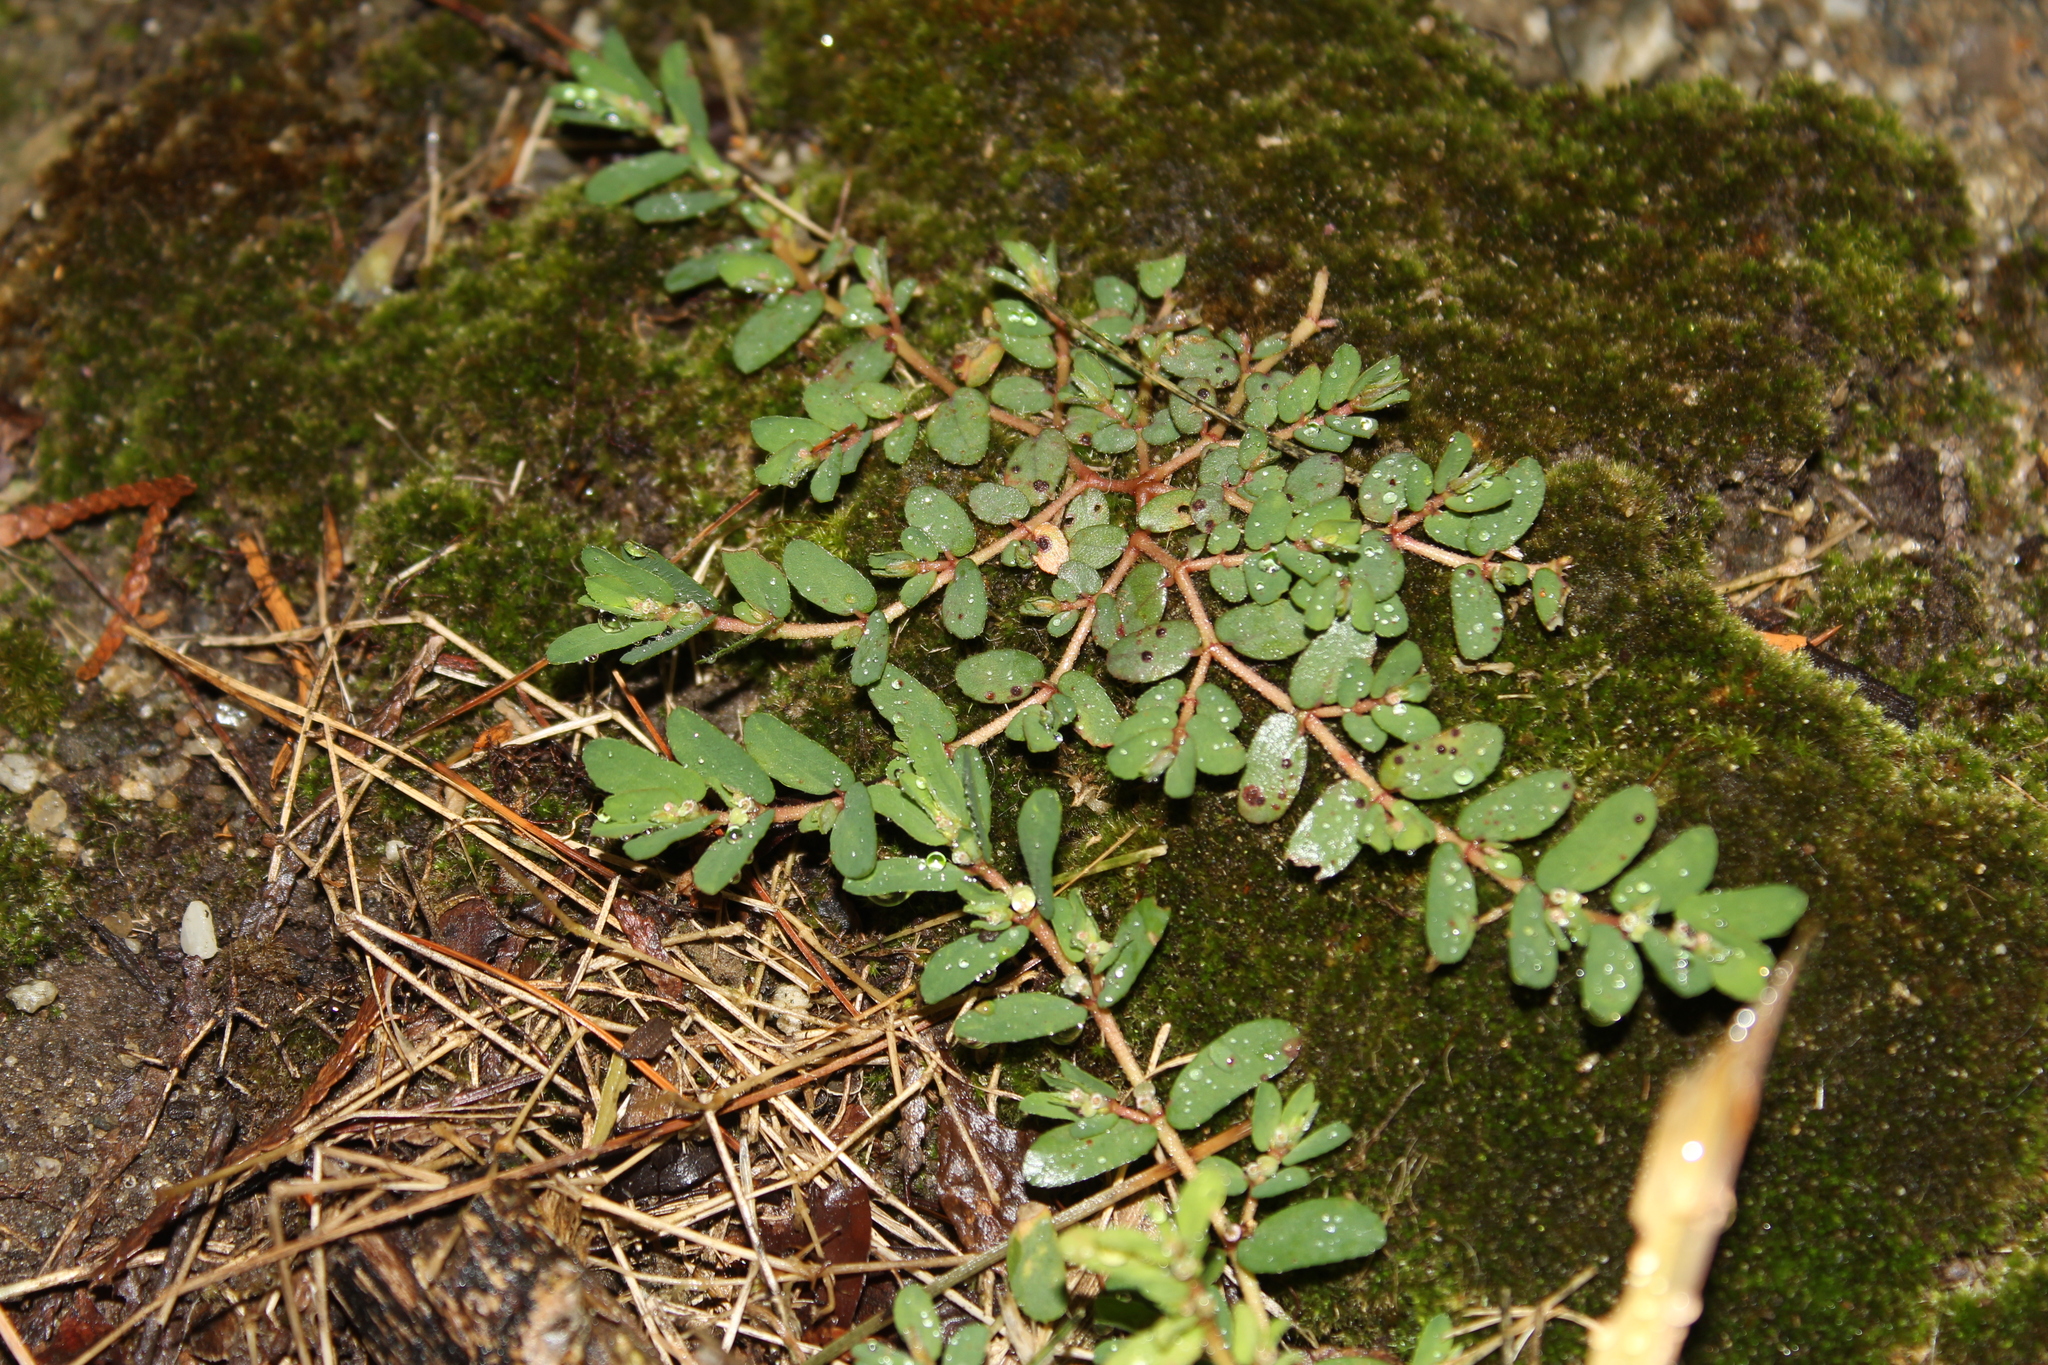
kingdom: Plantae
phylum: Tracheophyta
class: Magnoliopsida
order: Malpighiales
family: Euphorbiaceae
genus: Euphorbia
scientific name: Euphorbia maculata
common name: Spotted spurge
